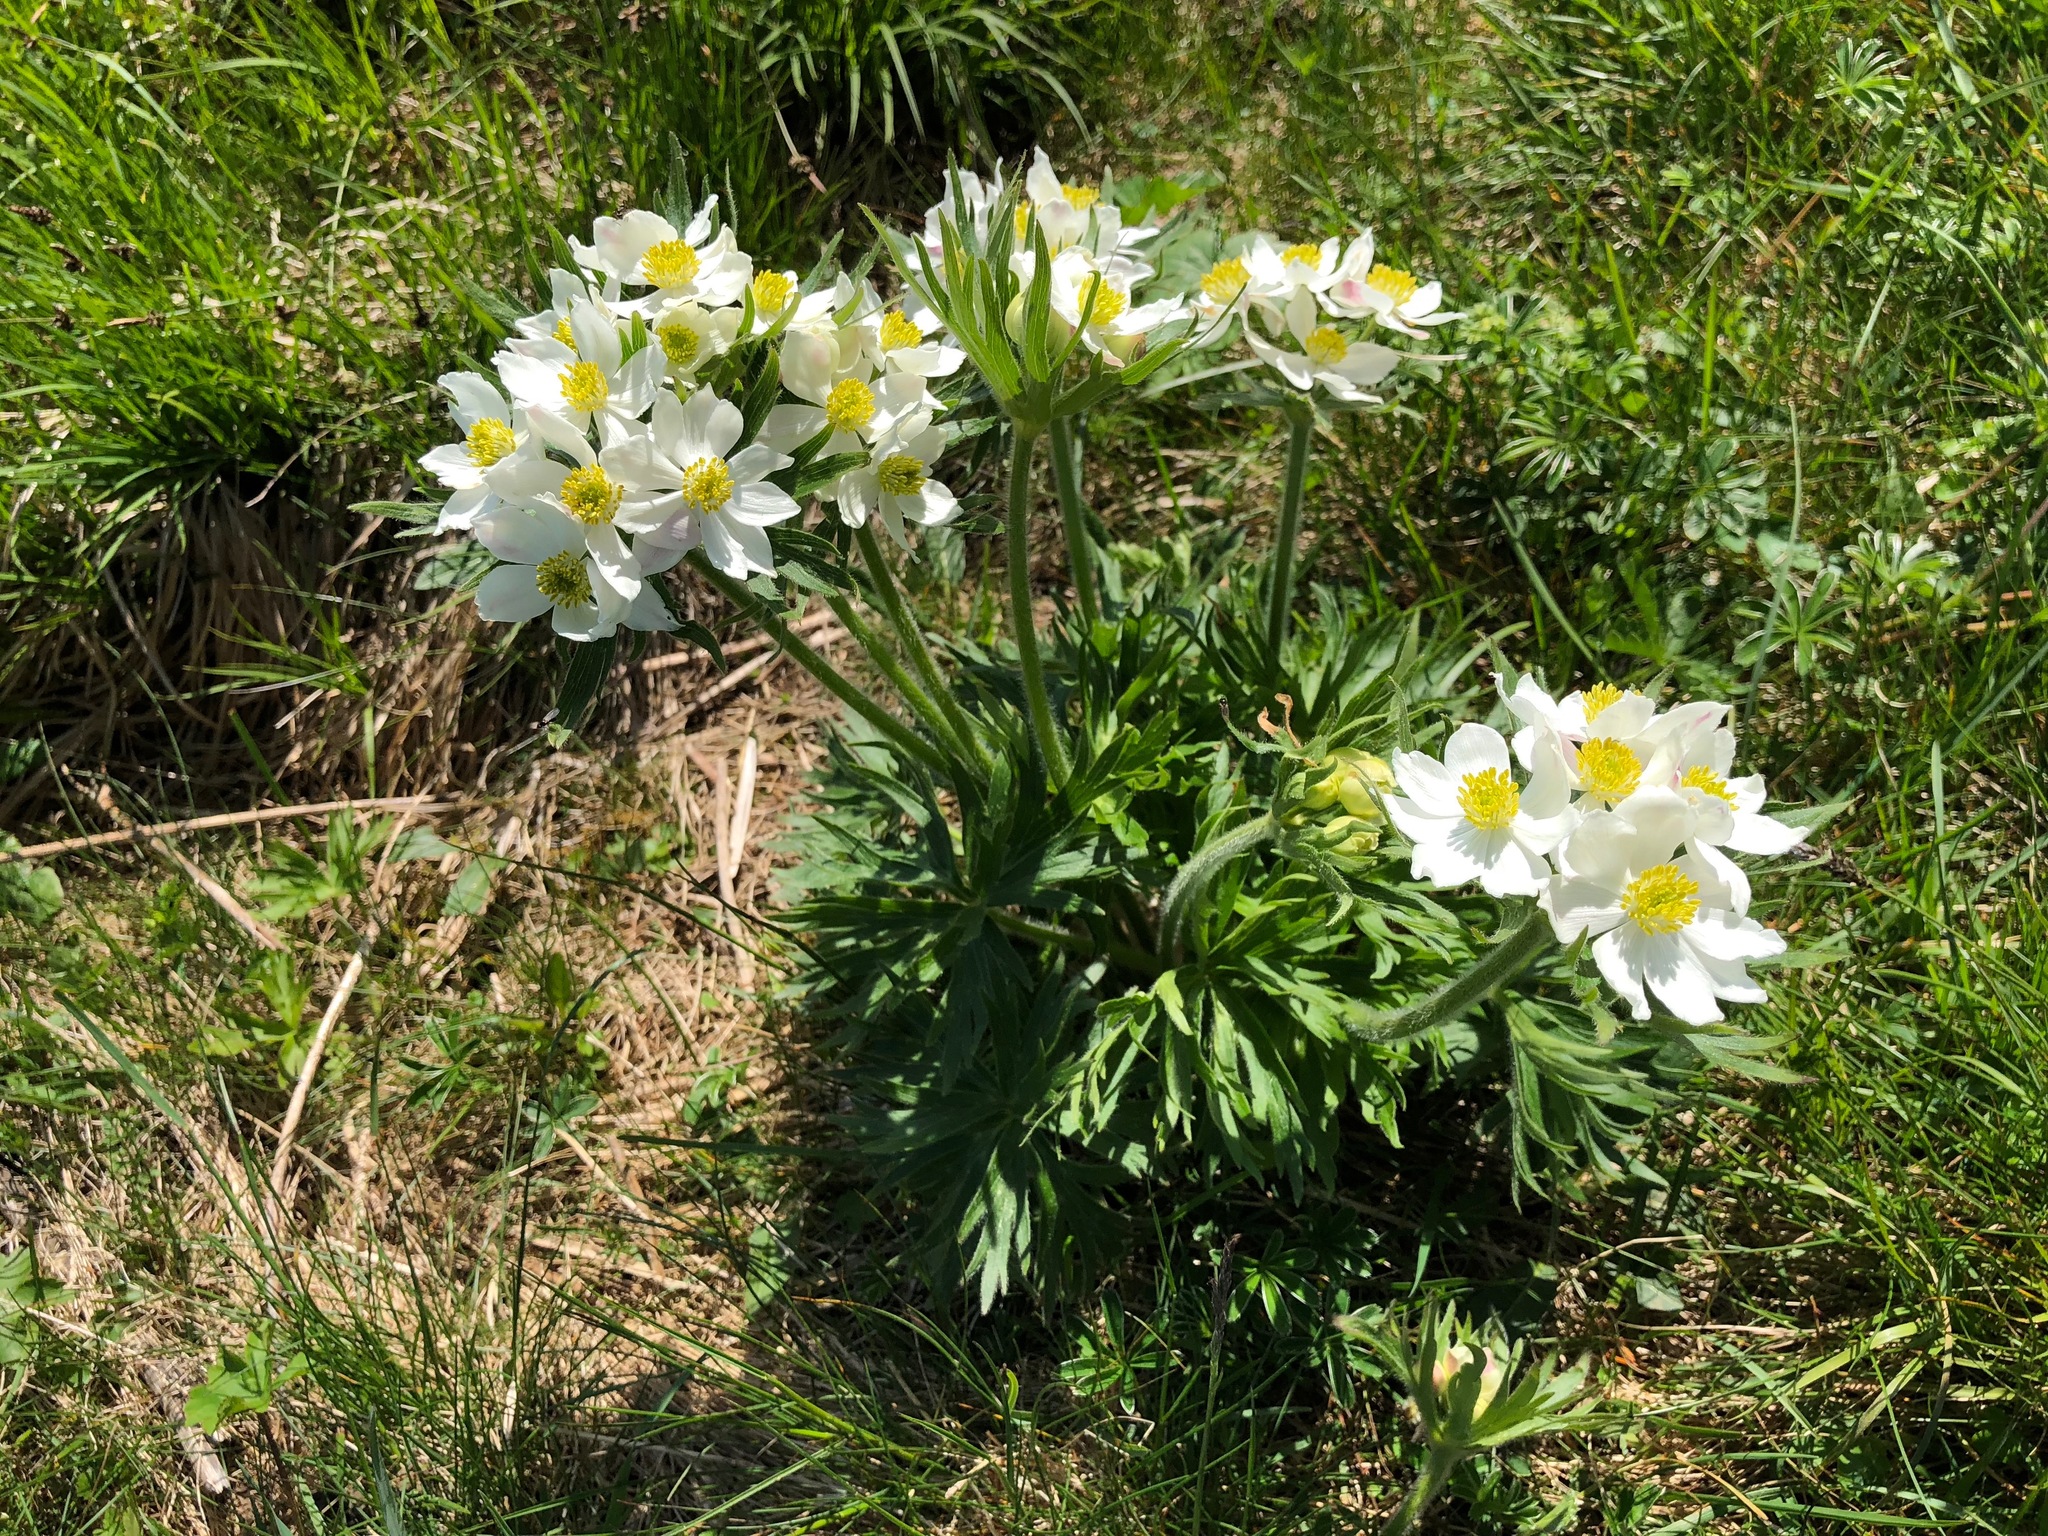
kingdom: Plantae
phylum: Tracheophyta
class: Magnoliopsida
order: Ranunculales
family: Ranunculaceae
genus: Anemonastrum
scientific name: Anemonastrum narcissiflorum
